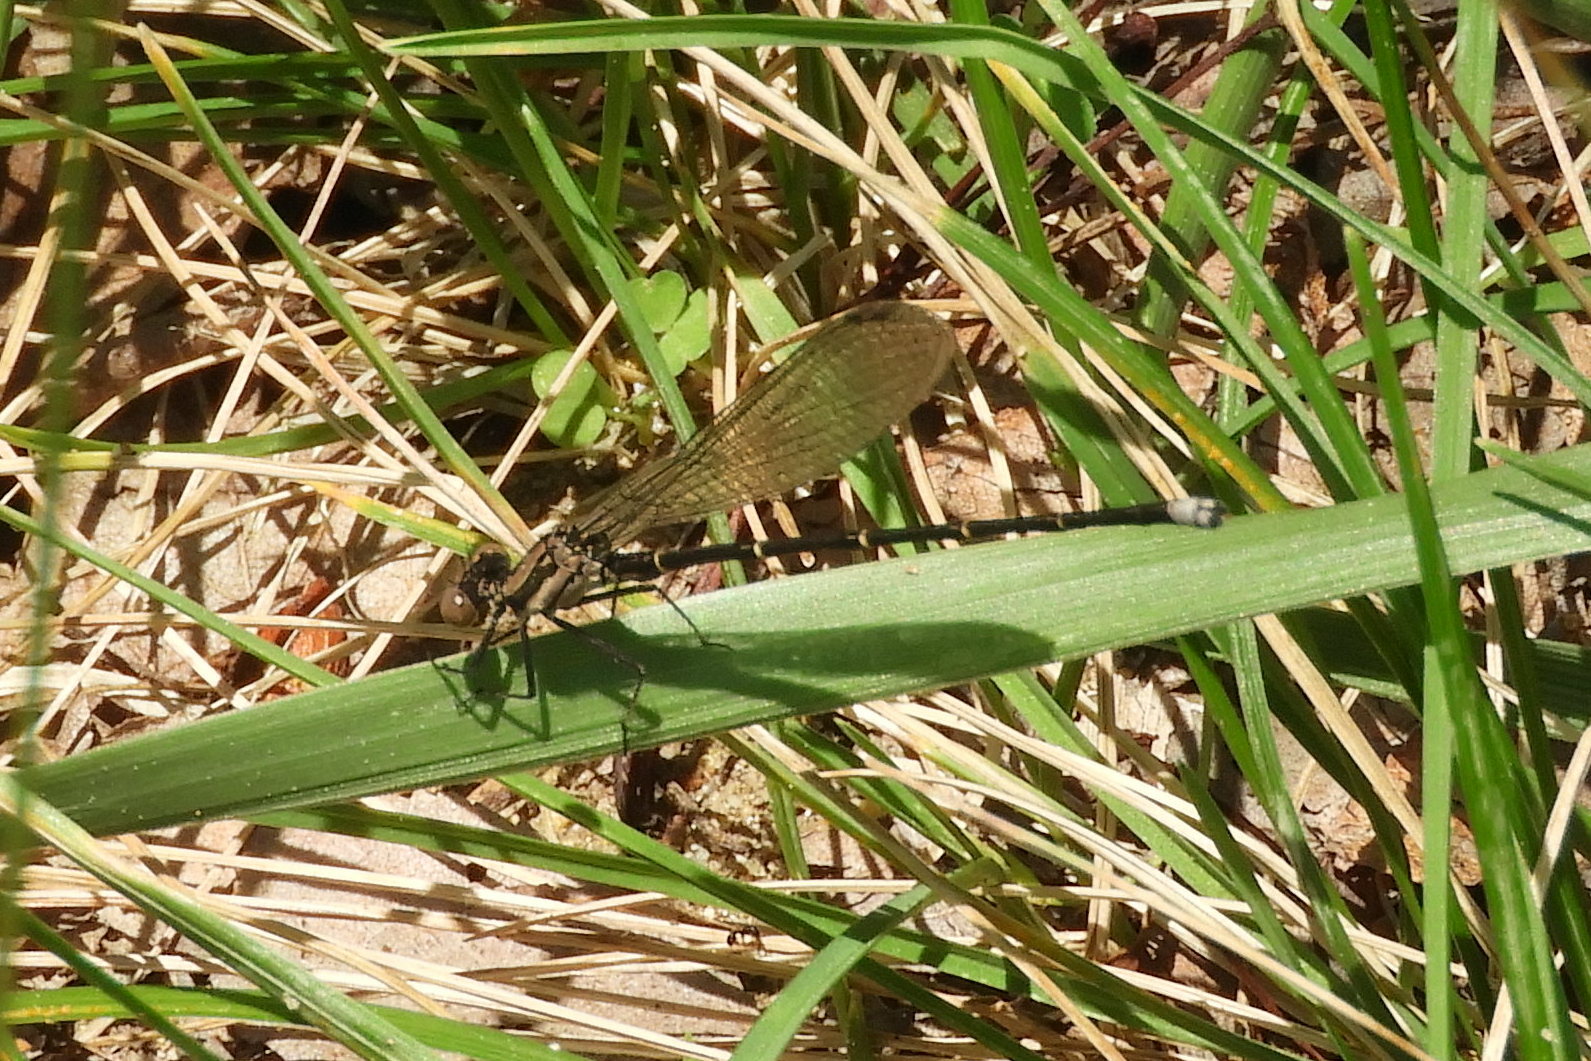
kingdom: Animalia
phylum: Arthropoda
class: Insecta
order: Odonata
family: Coenagrionidae
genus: Argia
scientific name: Argia tibialis
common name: Blue-tipped dancer
